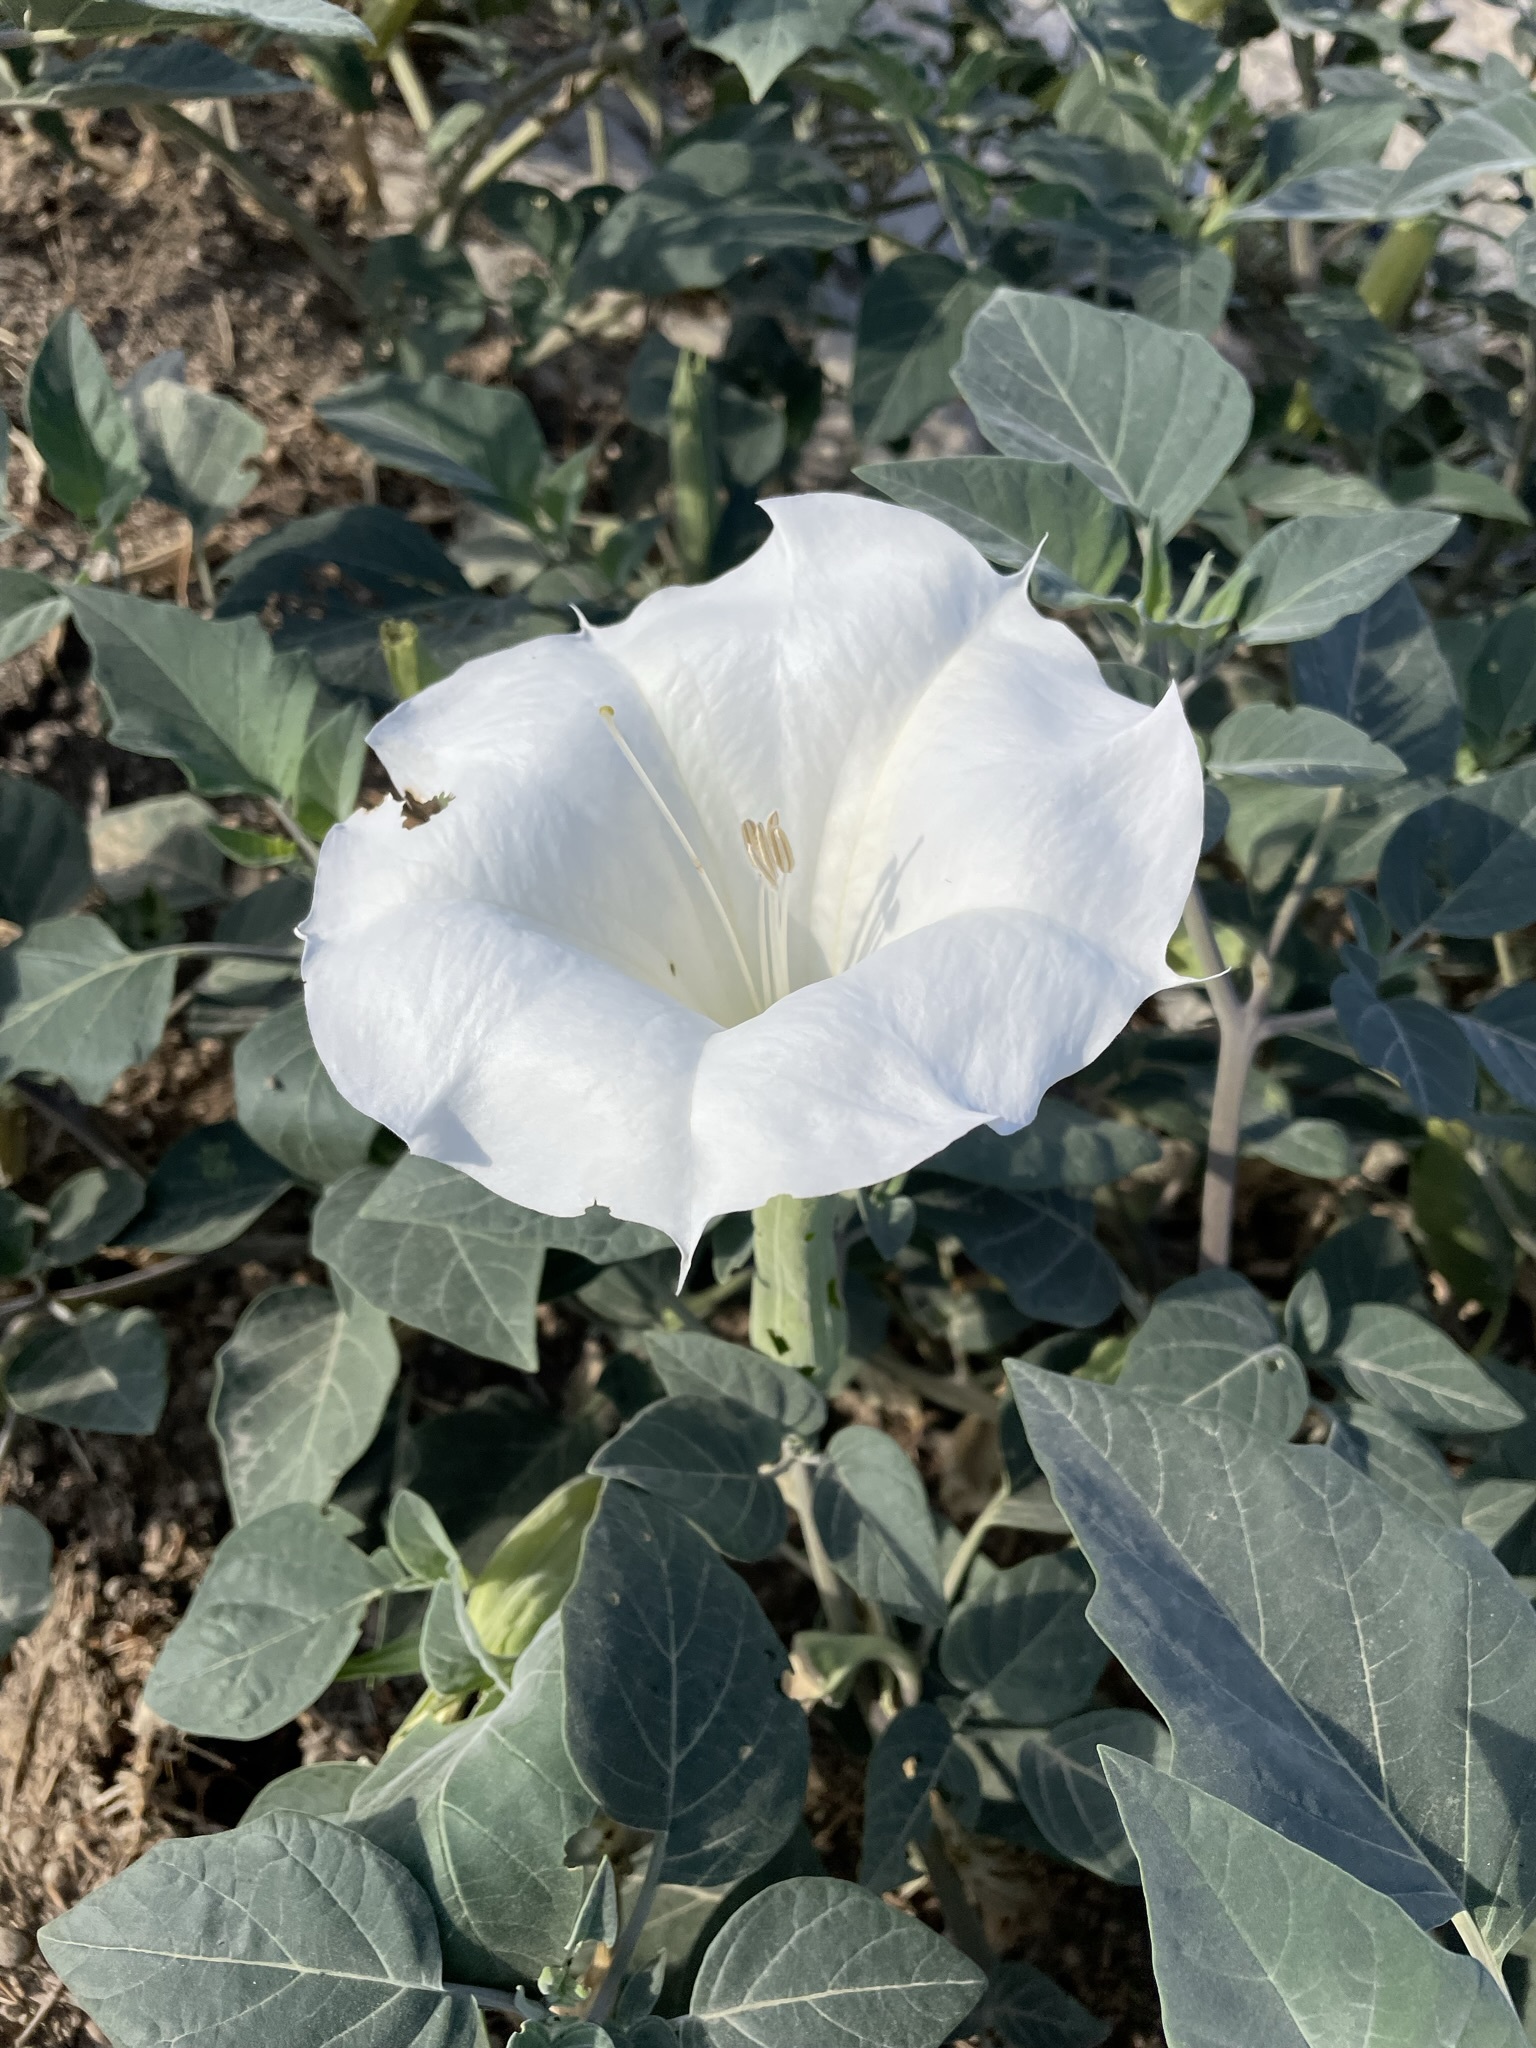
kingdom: Plantae
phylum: Tracheophyta
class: Magnoliopsida
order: Solanales
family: Solanaceae
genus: Datura
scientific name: Datura wrightii
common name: Sacred thorn-apple
